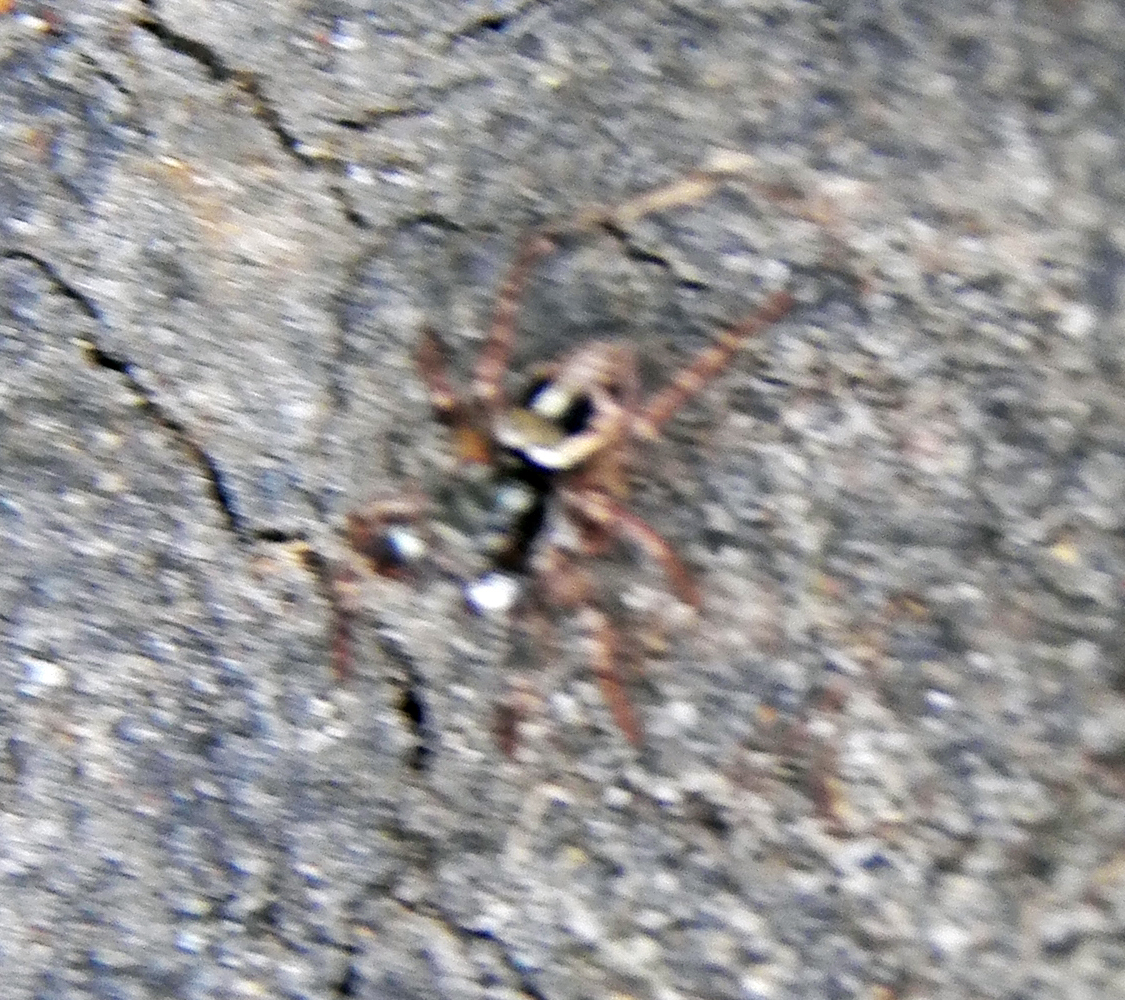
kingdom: Animalia
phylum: Arthropoda
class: Arachnida
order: Araneae
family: Salticidae
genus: Anasaitis
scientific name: Anasaitis canosa
